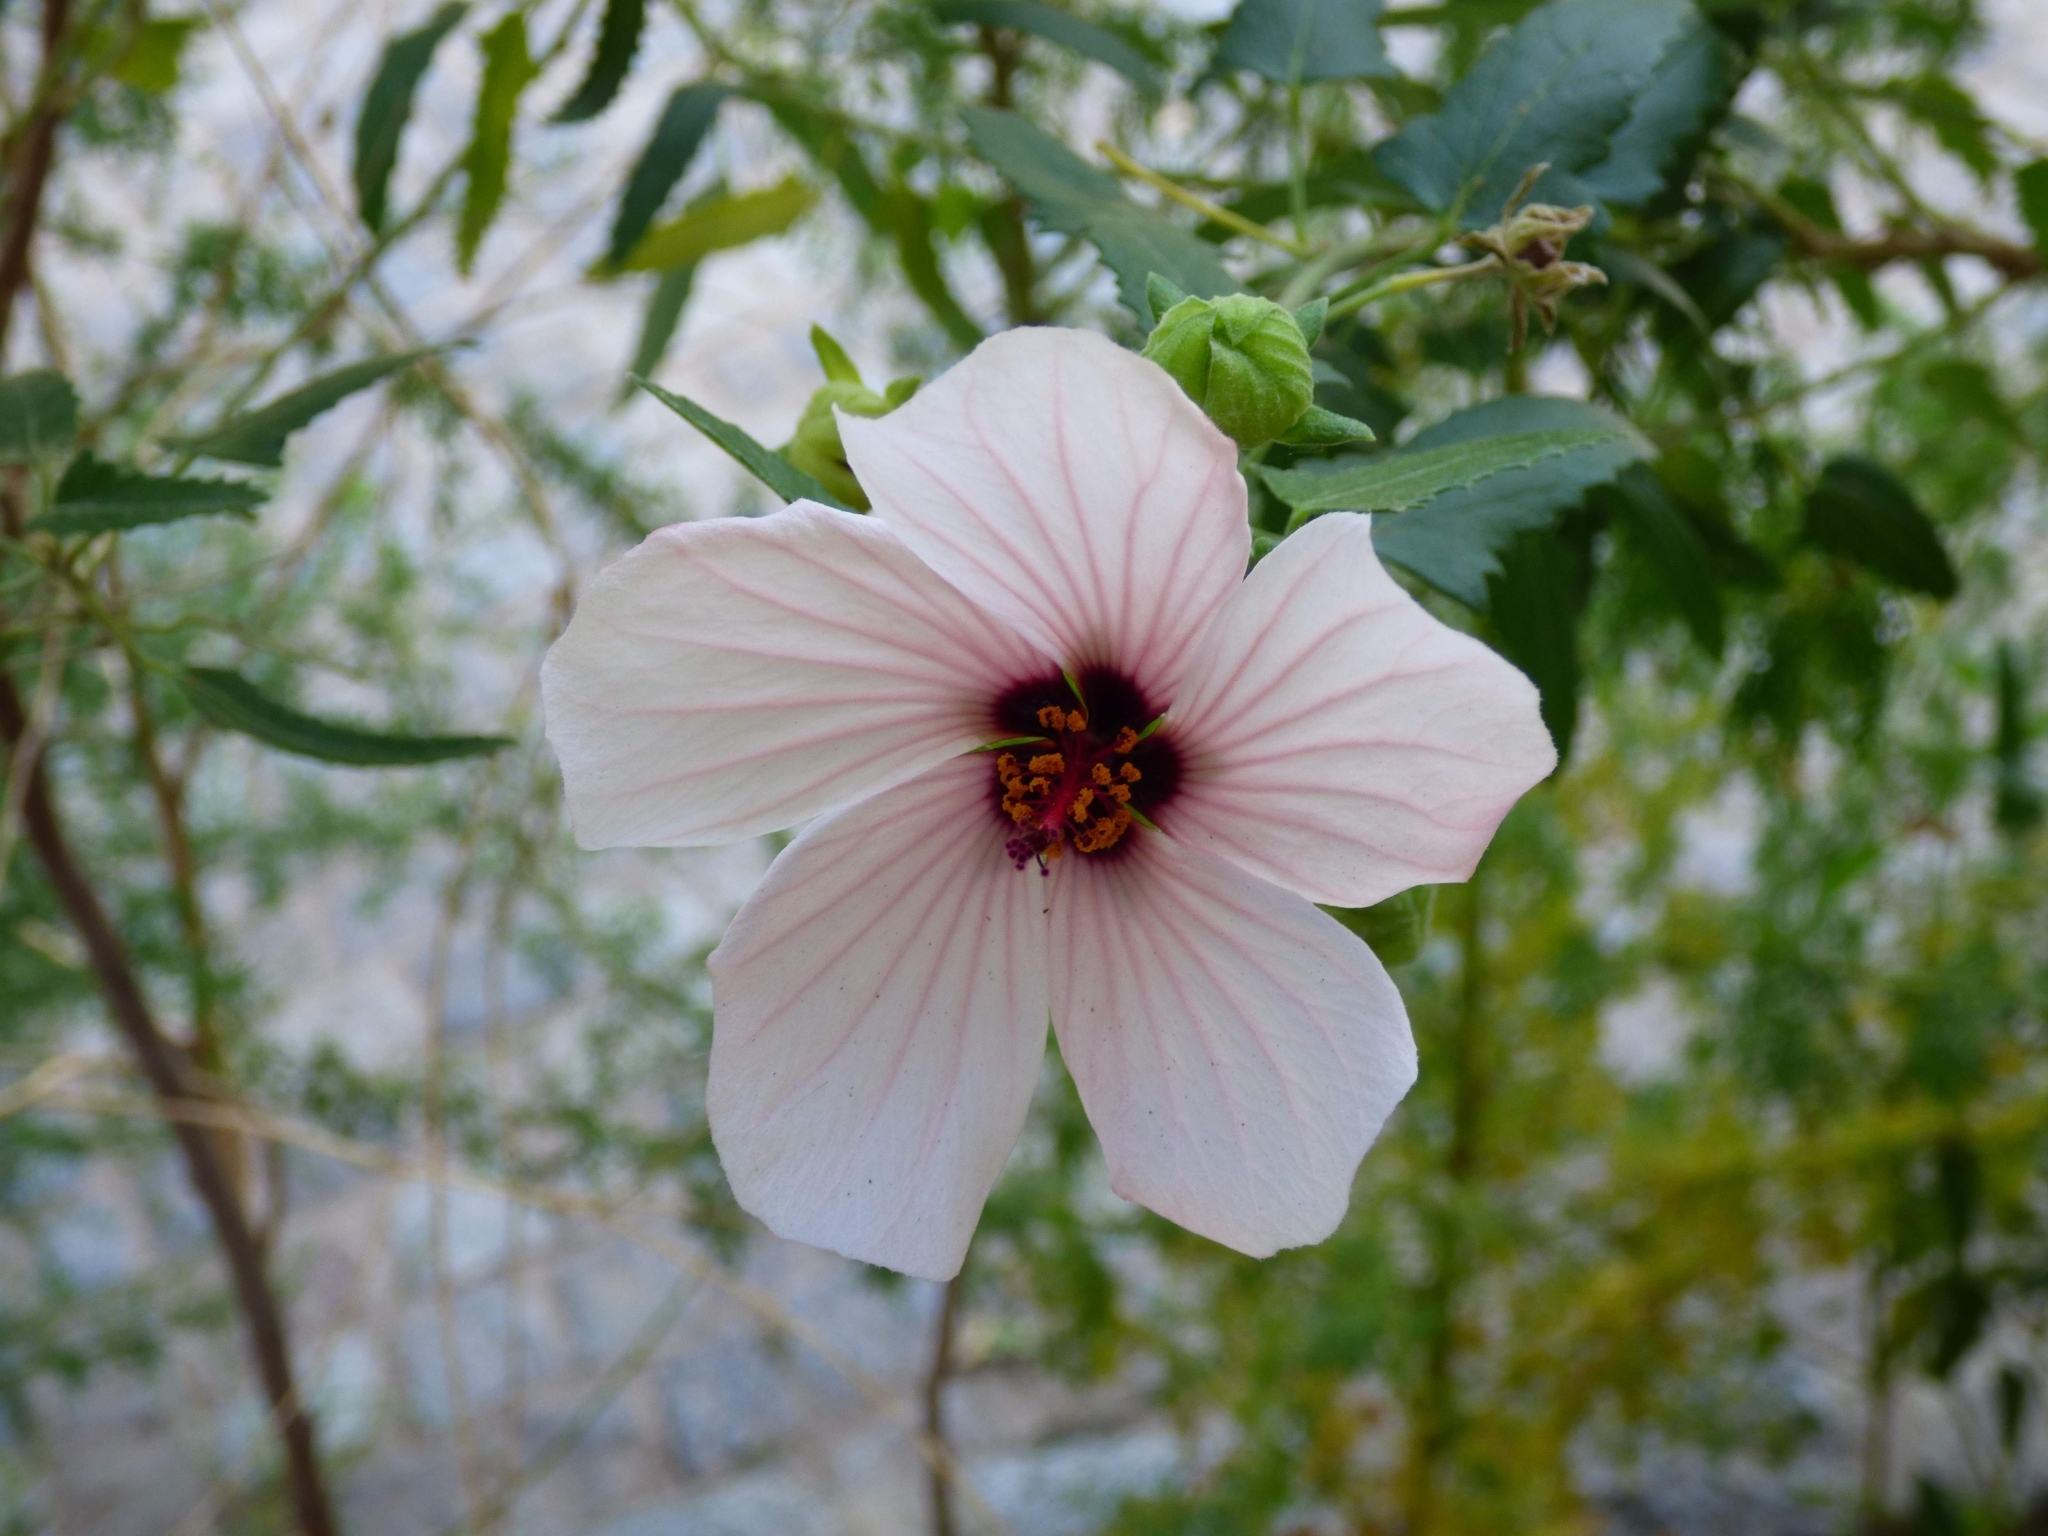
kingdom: Plantae
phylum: Tracheophyta
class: Magnoliopsida
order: Malvales
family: Malvaceae
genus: Pavonia
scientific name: Pavonia hastata
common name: Spearleaf swampmallow
